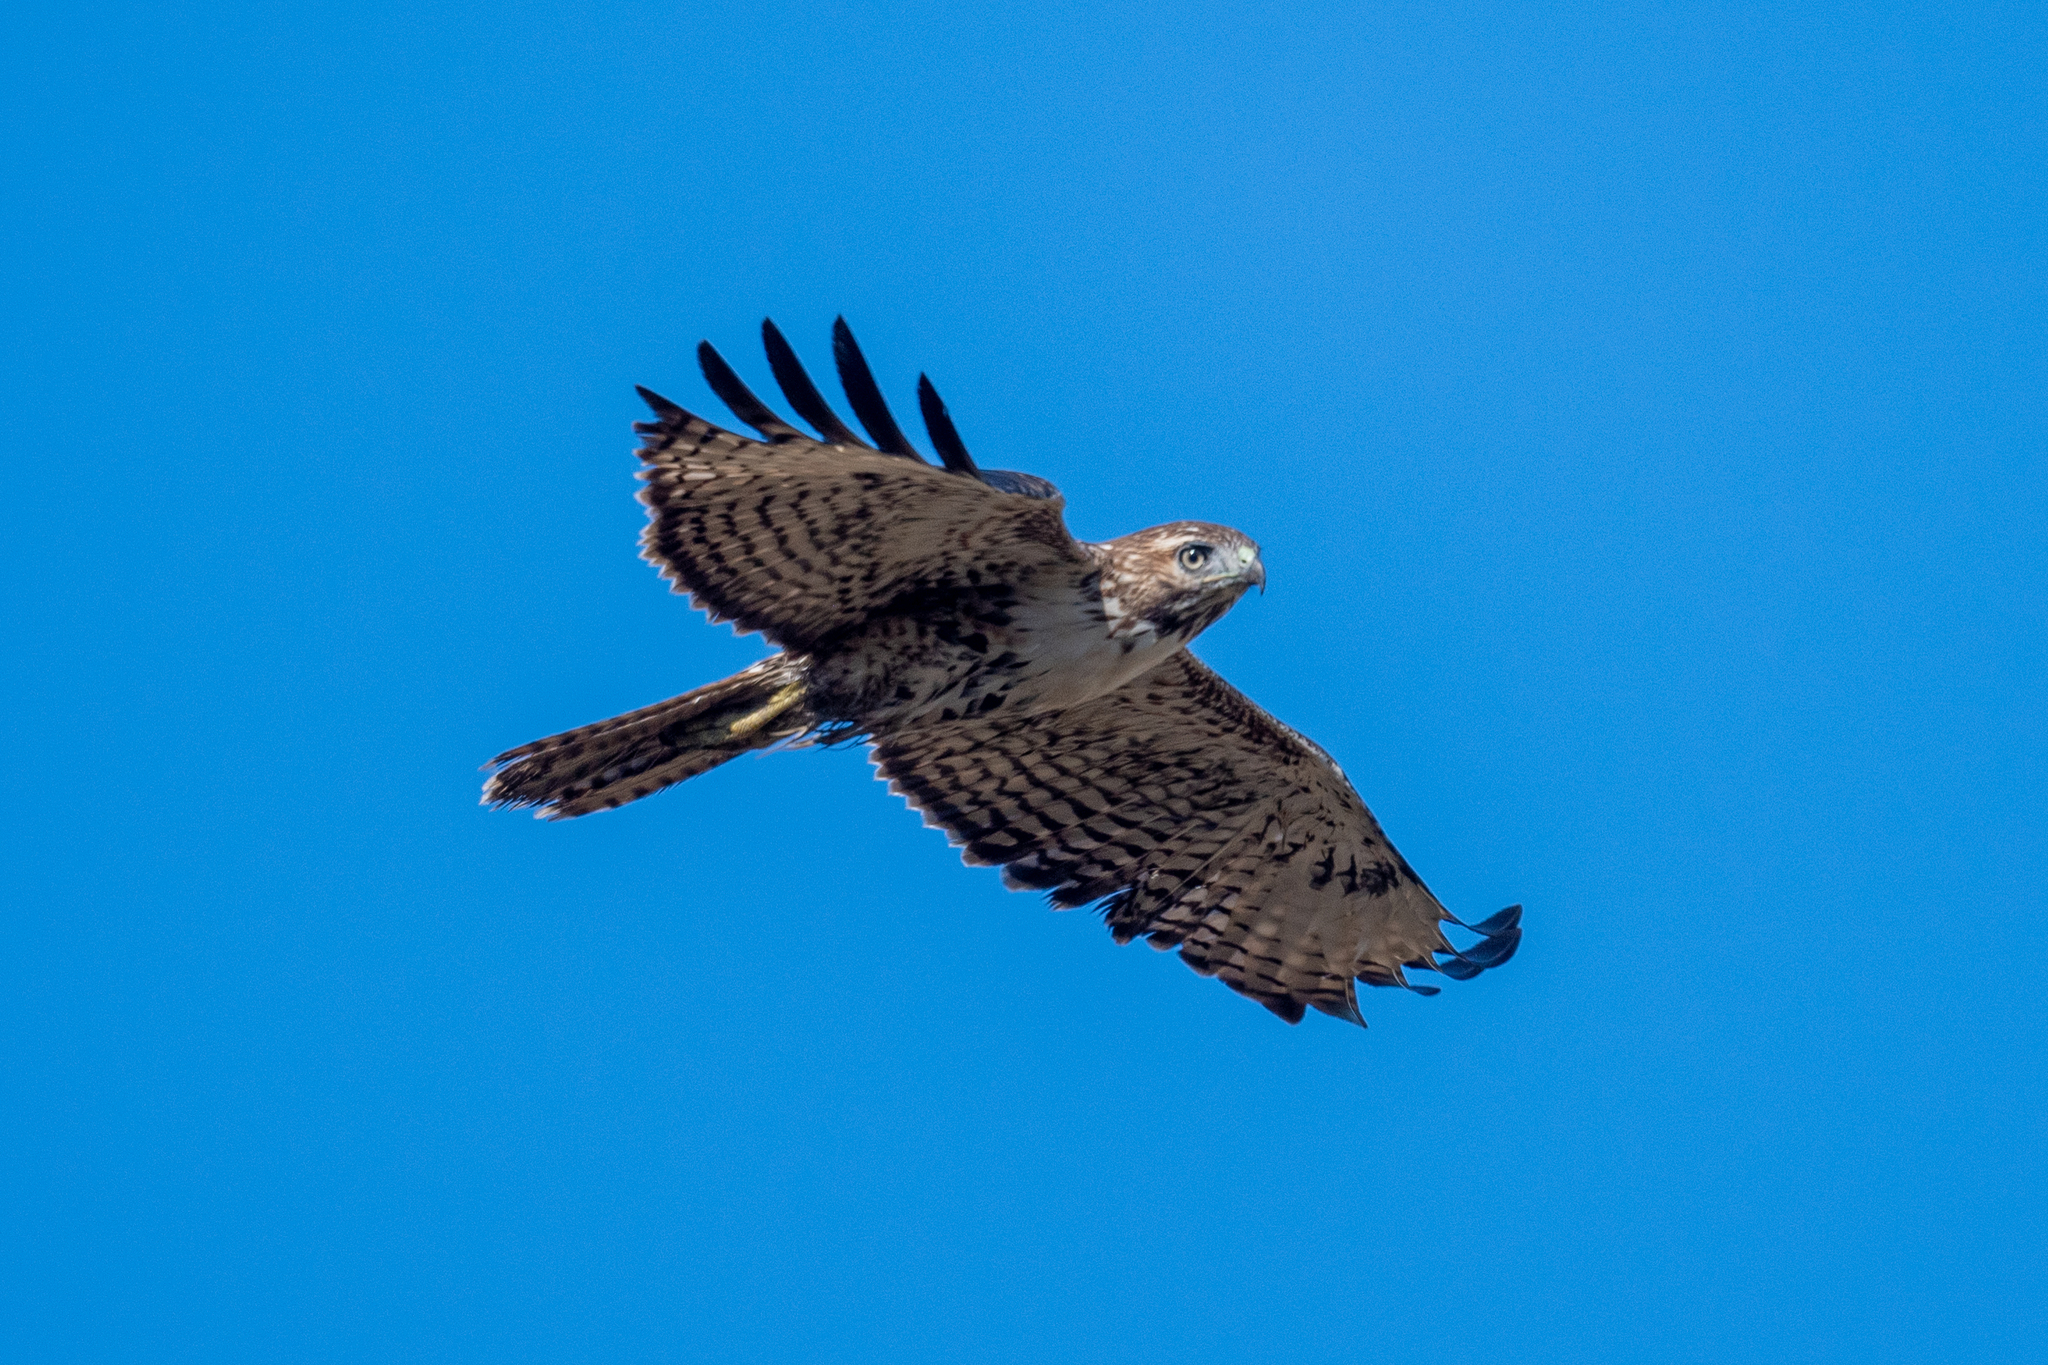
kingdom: Animalia
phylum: Chordata
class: Aves
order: Accipitriformes
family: Accipitridae
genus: Buteo
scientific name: Buteo jamaicensis
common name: Red-tailed hawk
